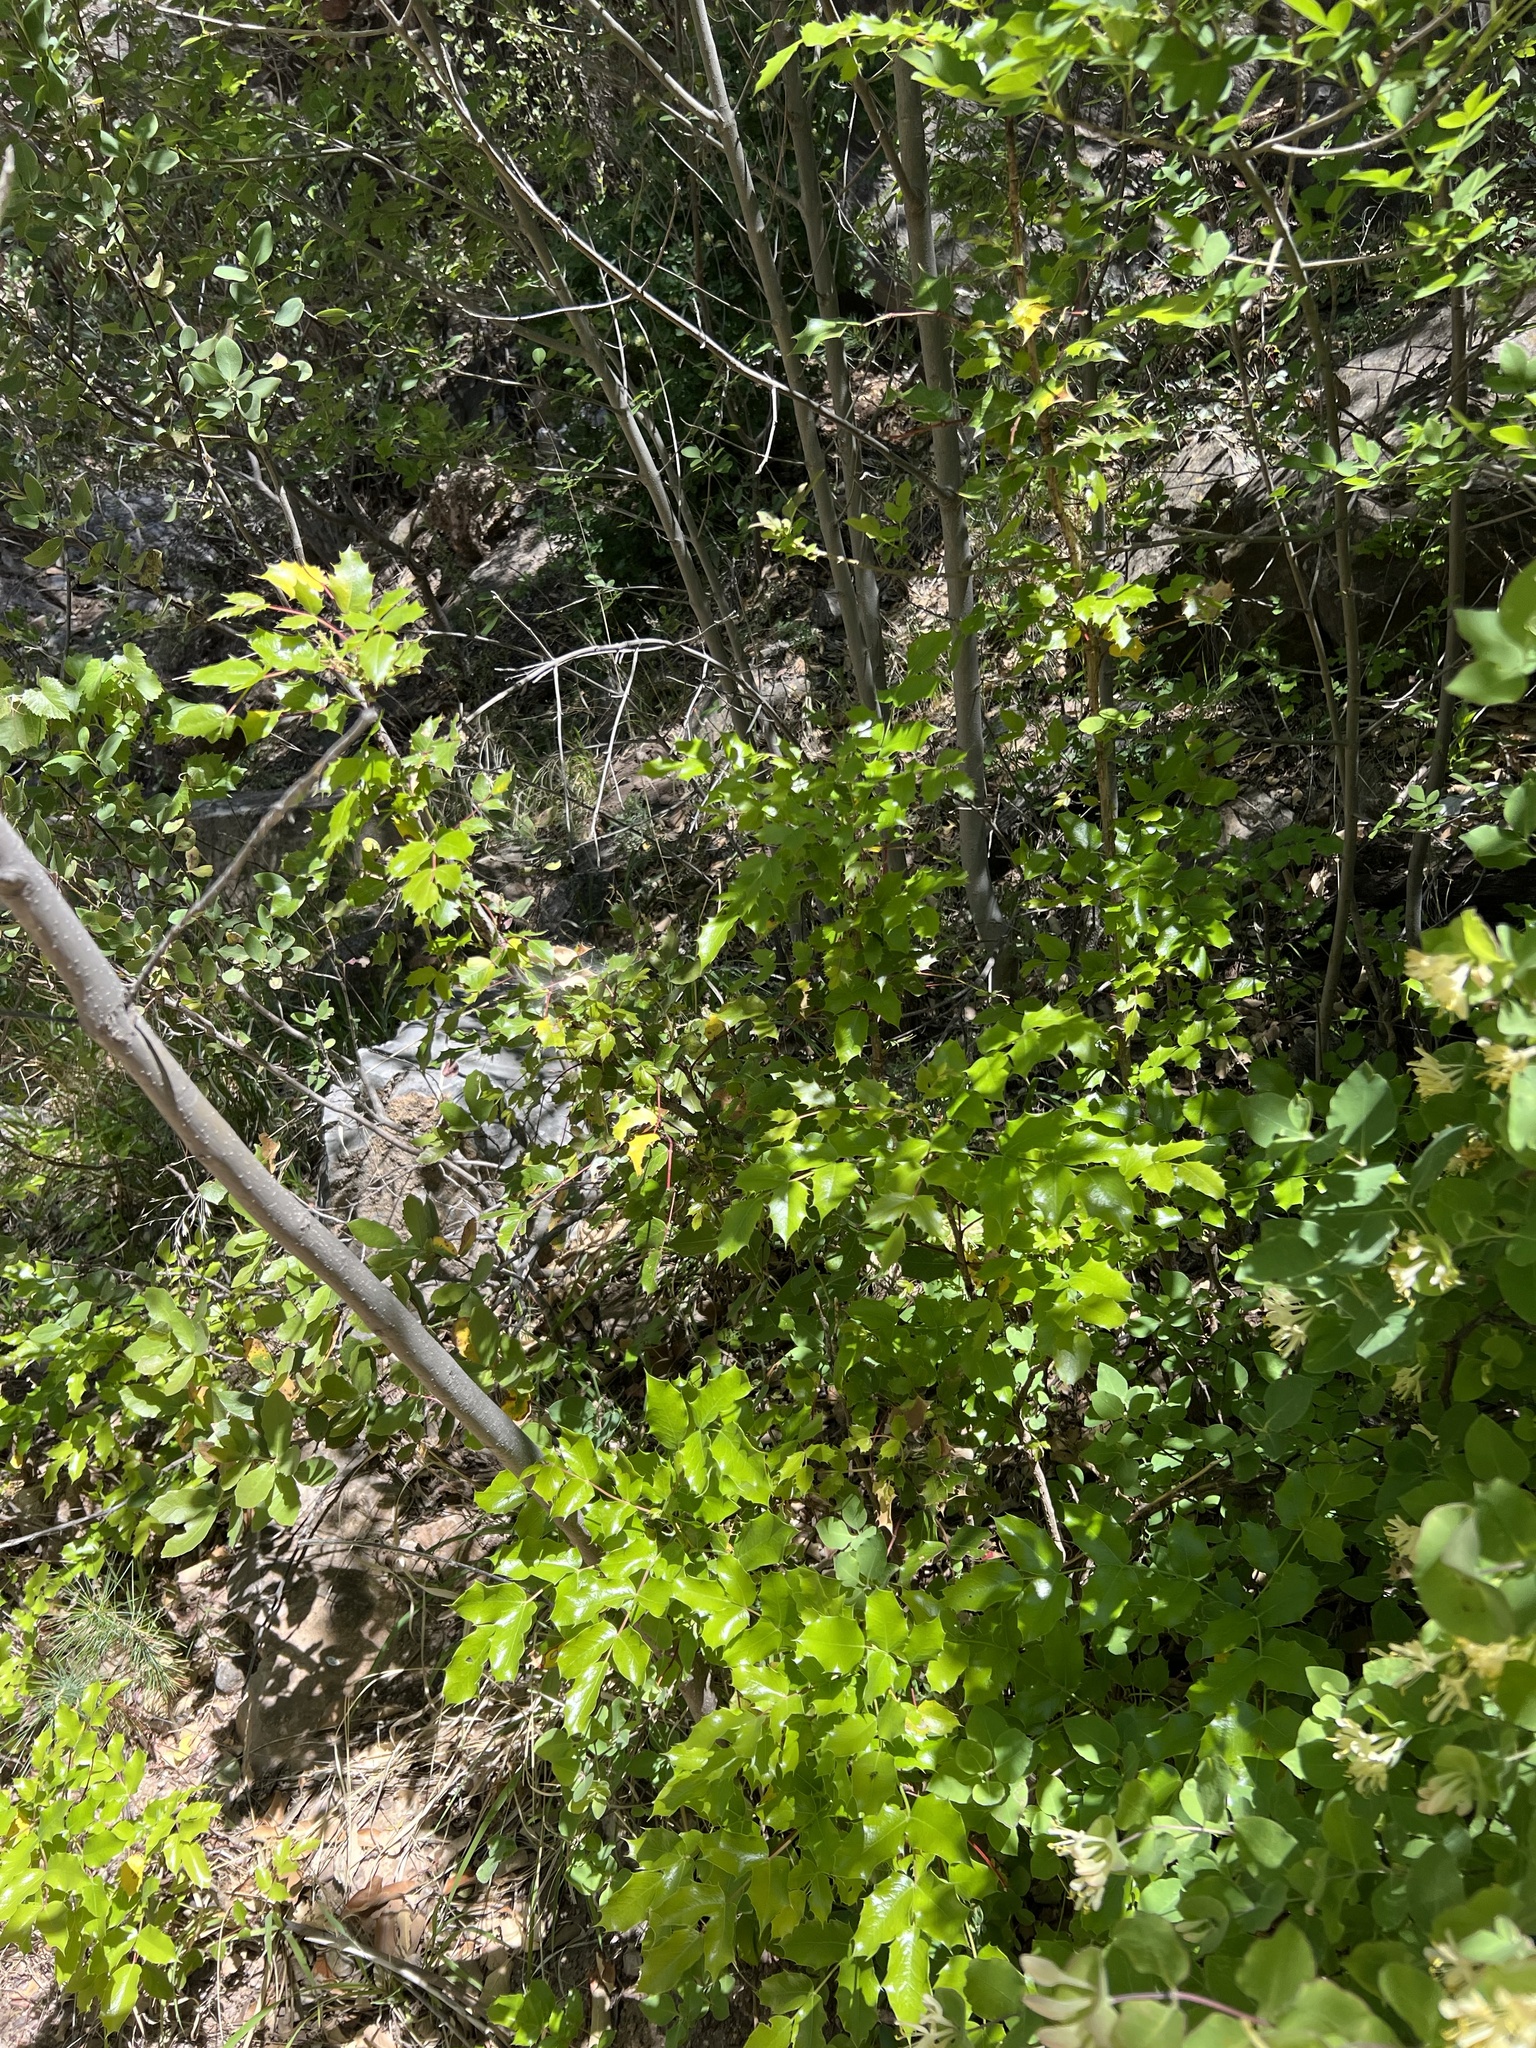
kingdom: Plantae
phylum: Tracheophyta
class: Magnoliopsida
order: Ranunculales
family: Berberidaceae
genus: Mahonia
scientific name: Mahonia wilcoxii
